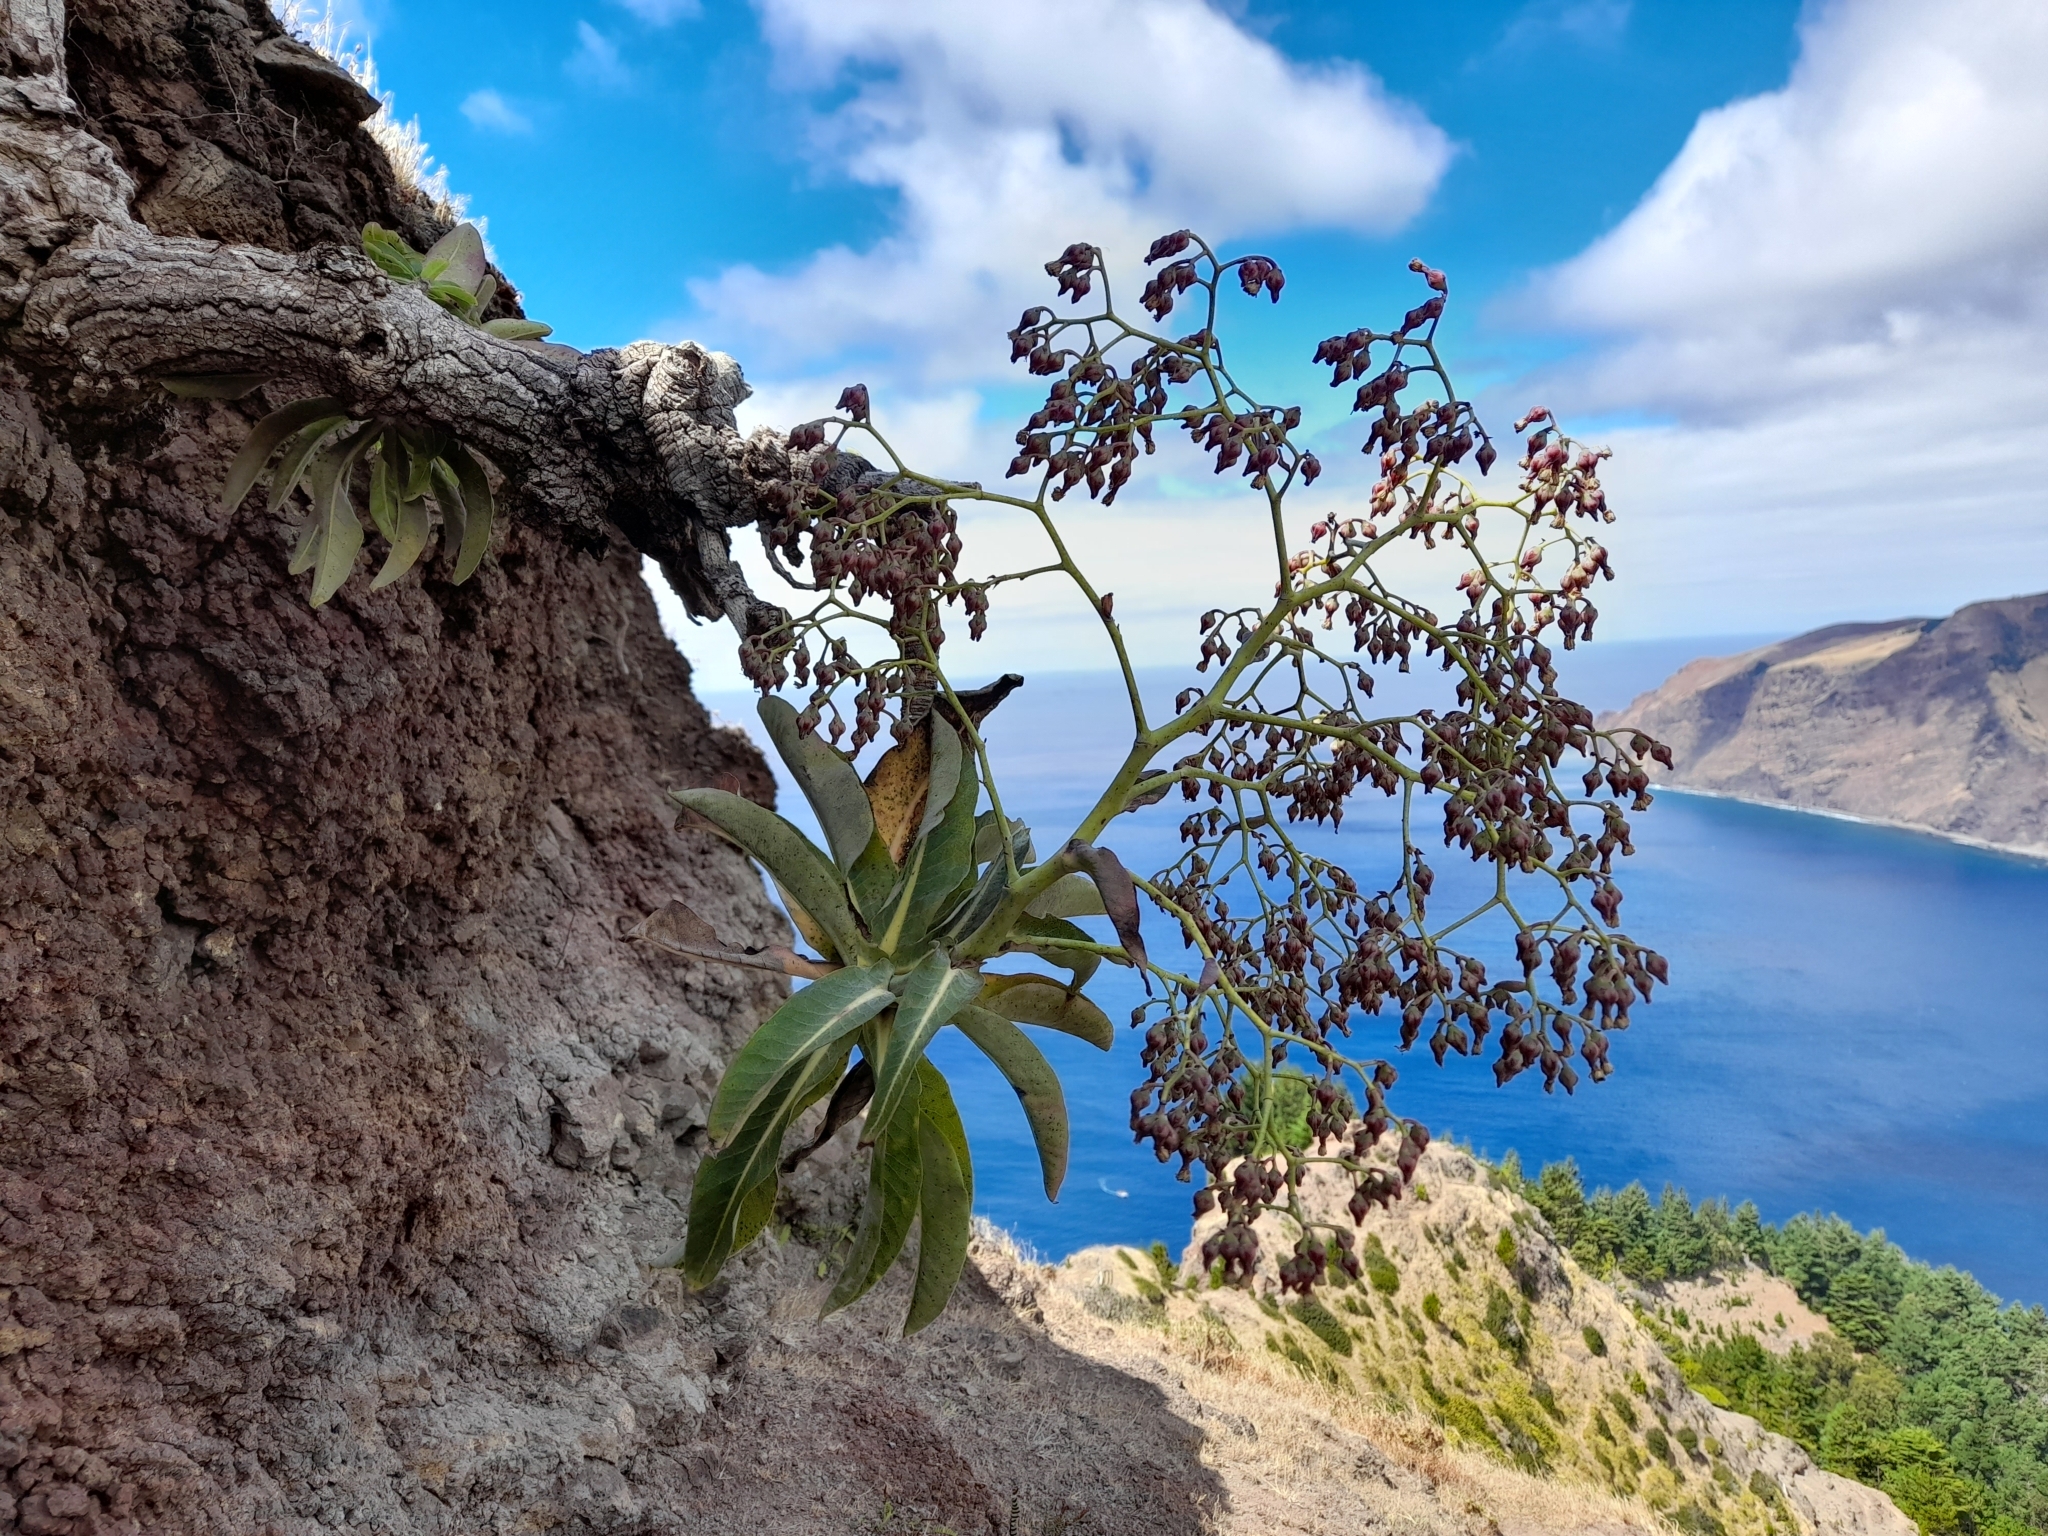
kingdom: Plantae
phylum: Tracheophyta
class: Magnoliopsida
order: Asterales
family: Asteraceae
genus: Sonchus
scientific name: Sonchus pruinatus
